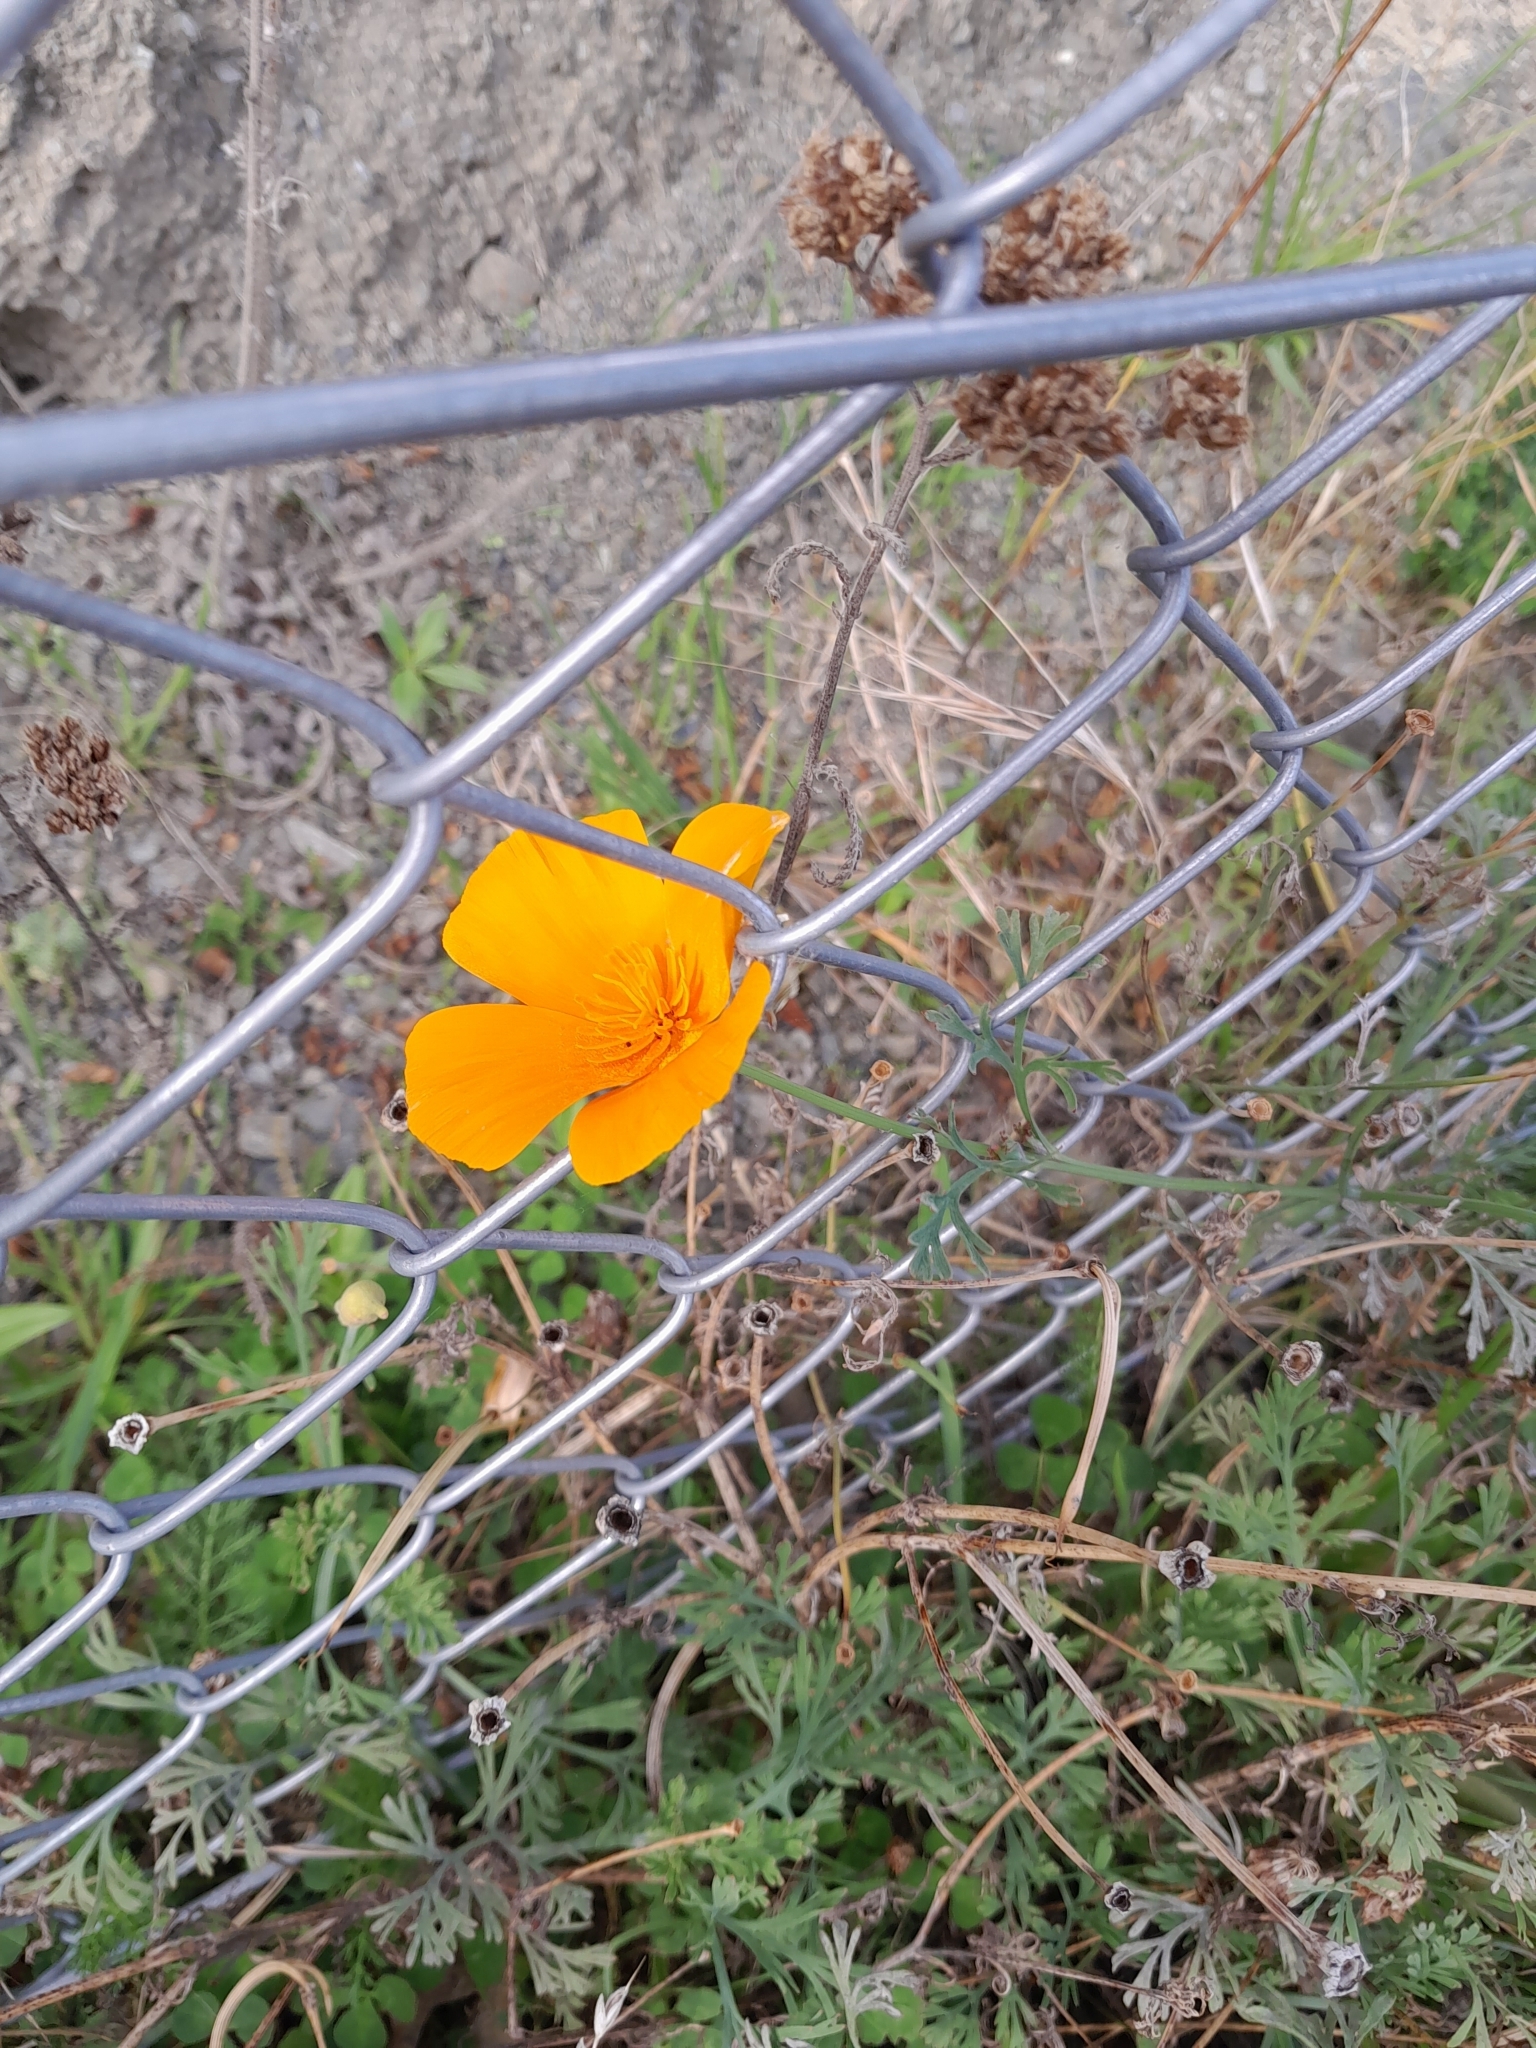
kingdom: Plantae
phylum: Tracheophyta
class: Magnoliopsida
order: Ranunculales
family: Papaveraceae
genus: Eschscholzia
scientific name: Eschscholzia californica
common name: California poppy
